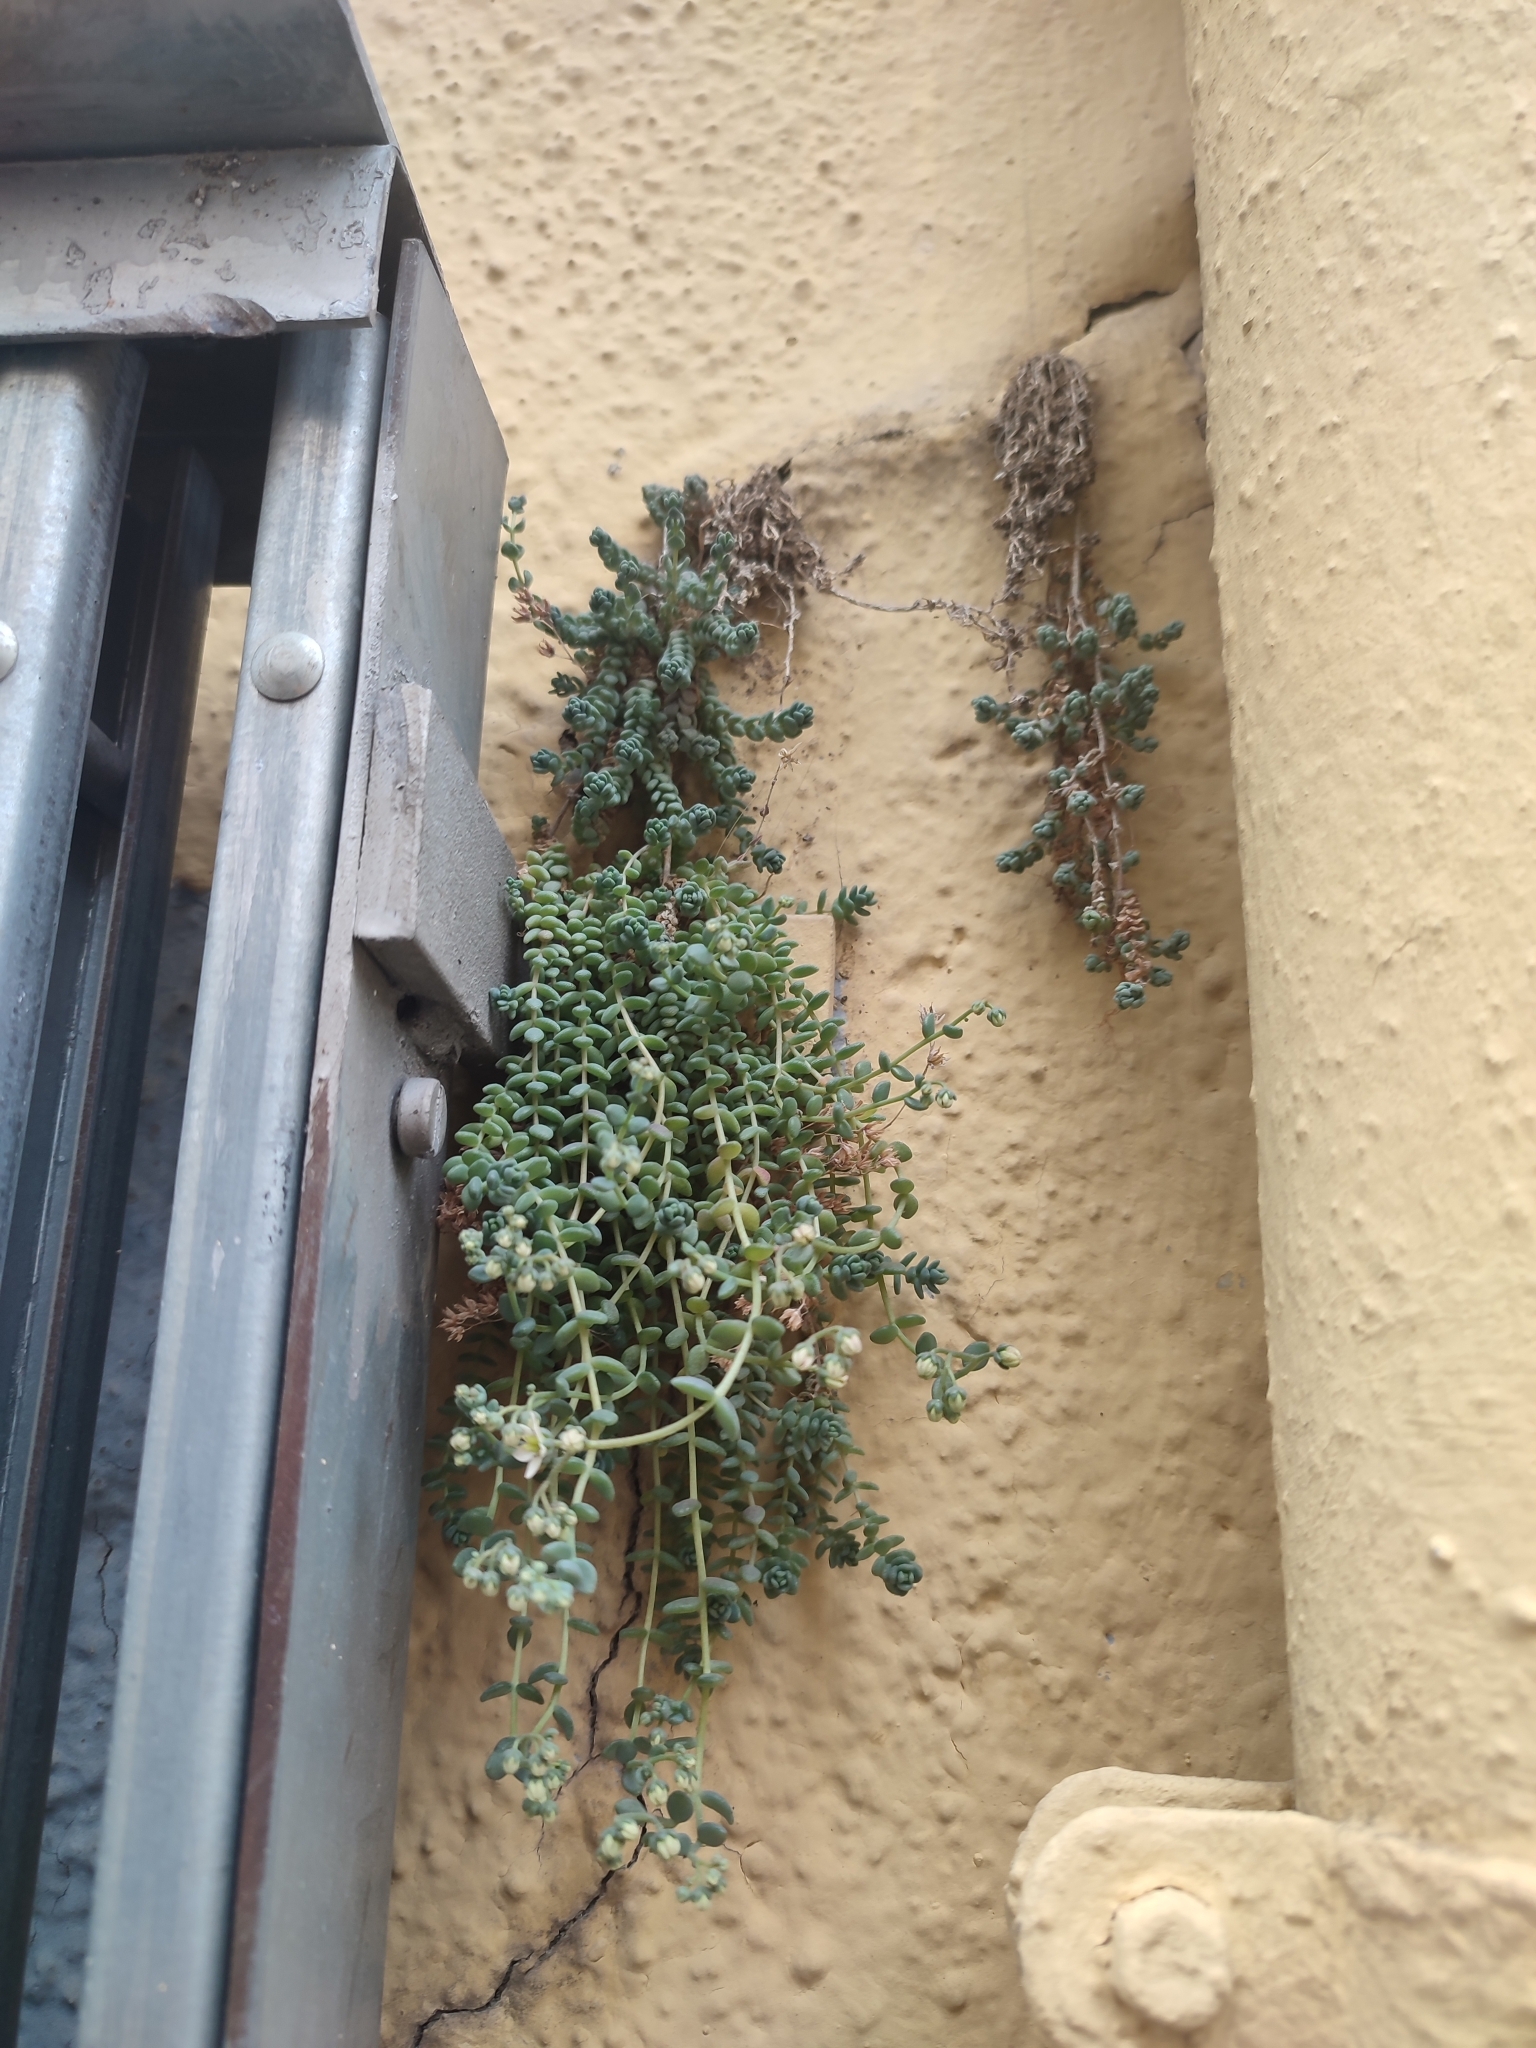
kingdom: Plantae
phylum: Tracheophyta
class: Magnoliopsida
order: Saxifragales
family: Crassulaceae
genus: Sedum
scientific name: Sedum dasyphyllum
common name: Thick-leaf stonecrop
